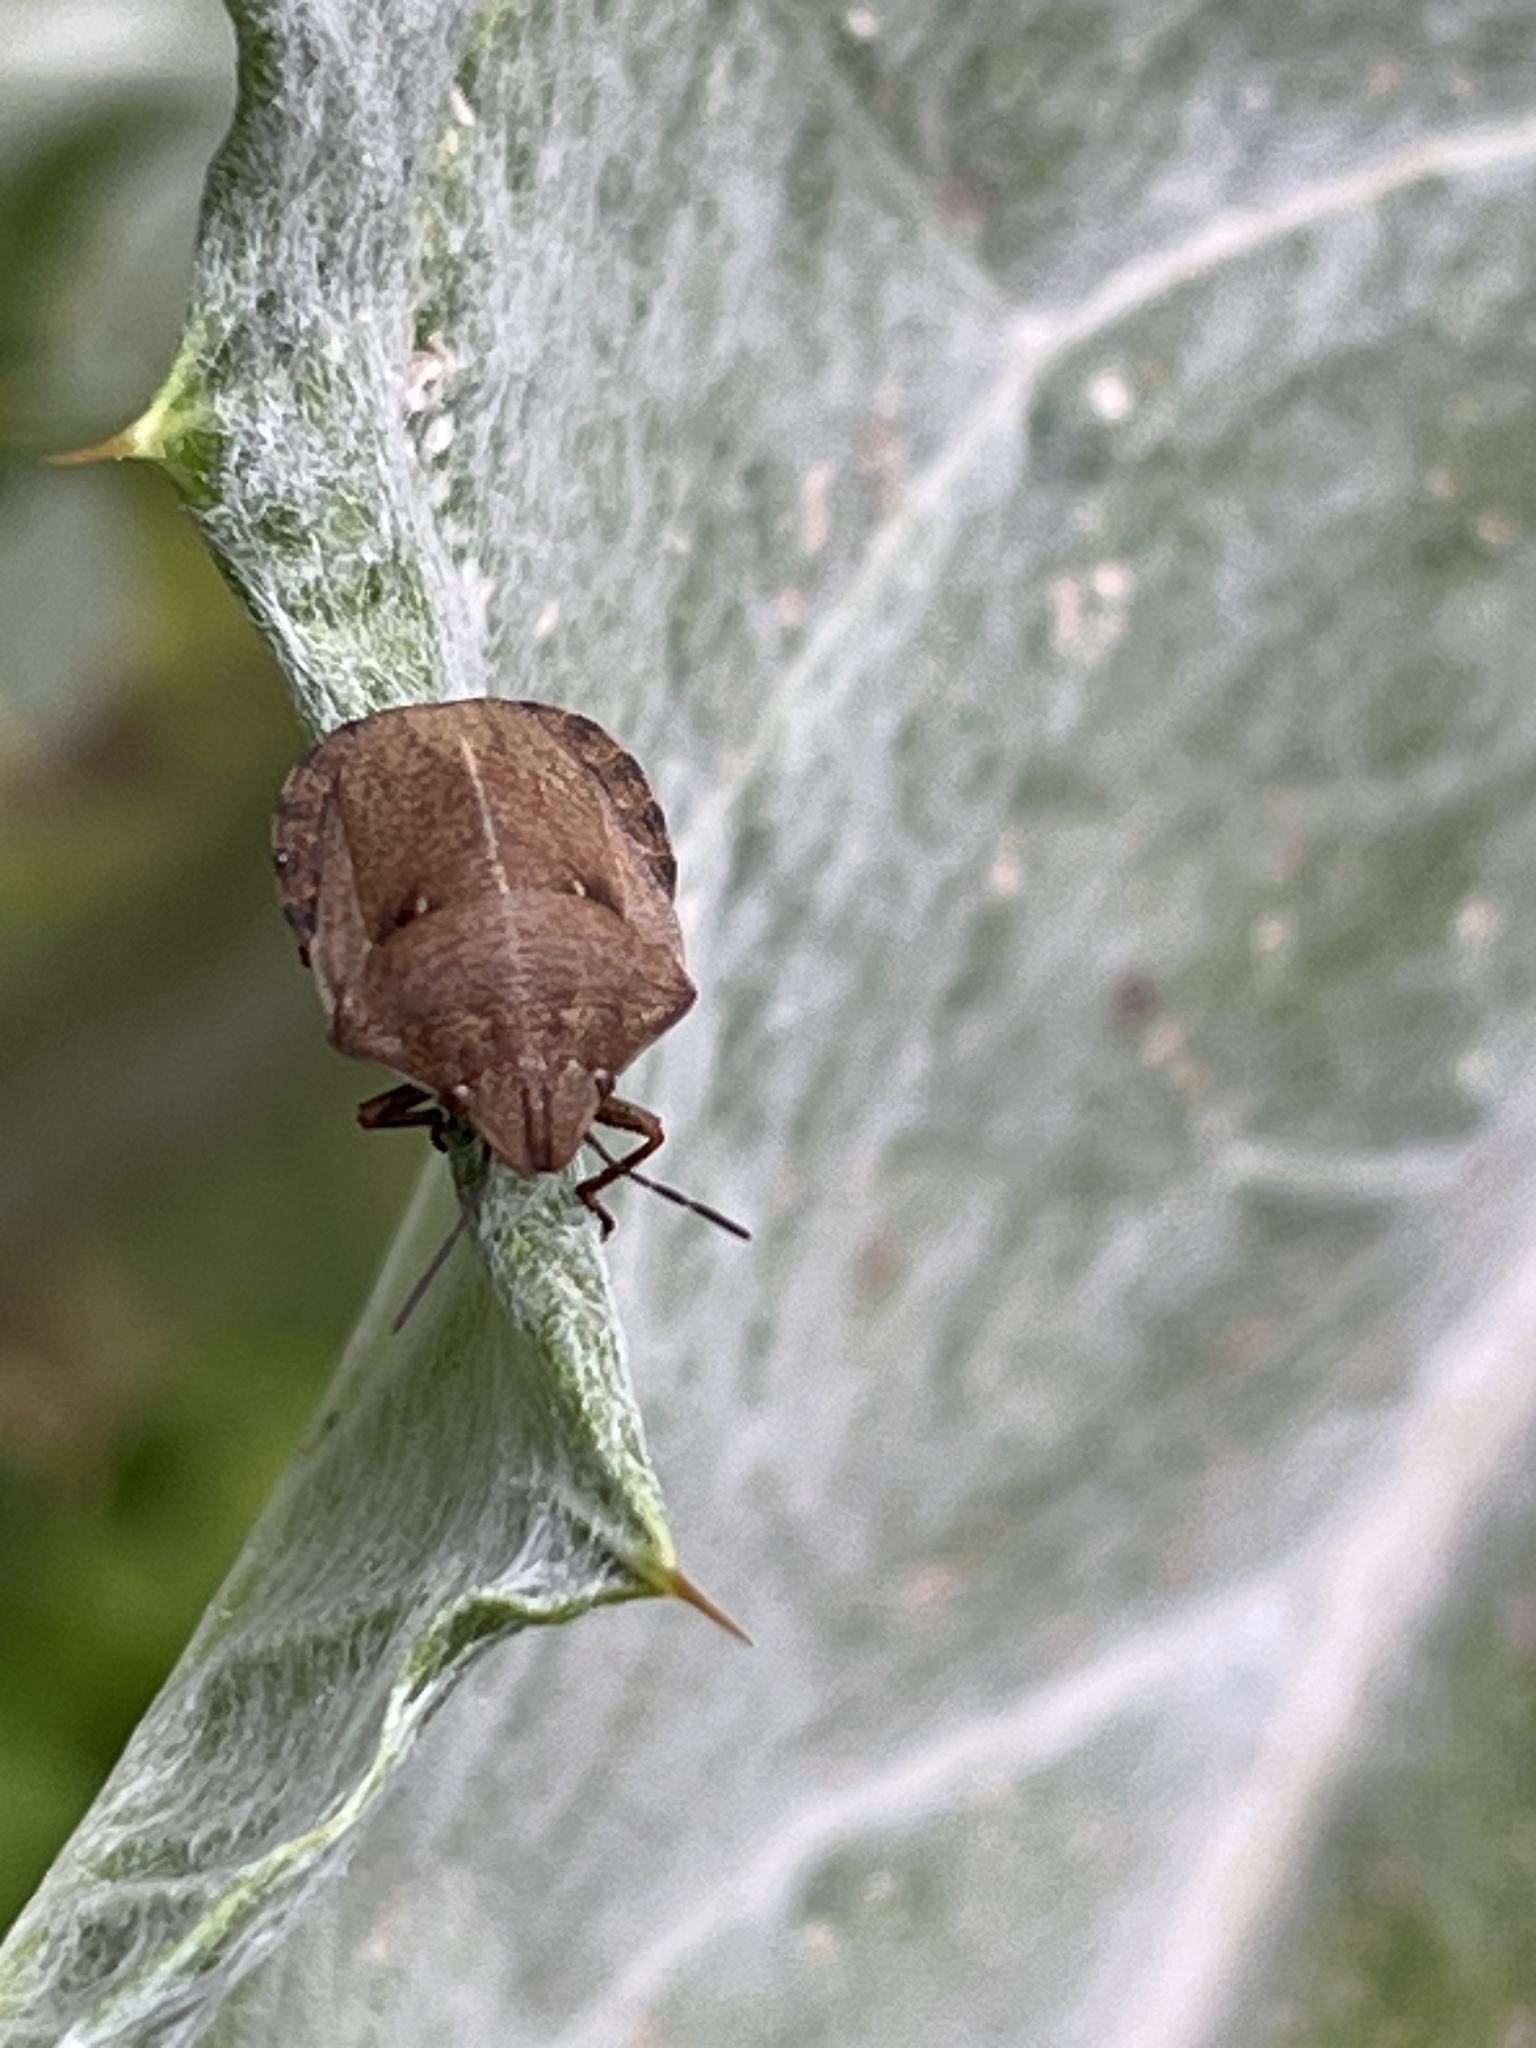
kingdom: Animalia
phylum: Arthropoda
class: Insecta
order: Hemiptera
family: Scutelleridae
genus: Eurygaster
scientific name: Eurygaster testudinaria
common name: Tortoise bug
